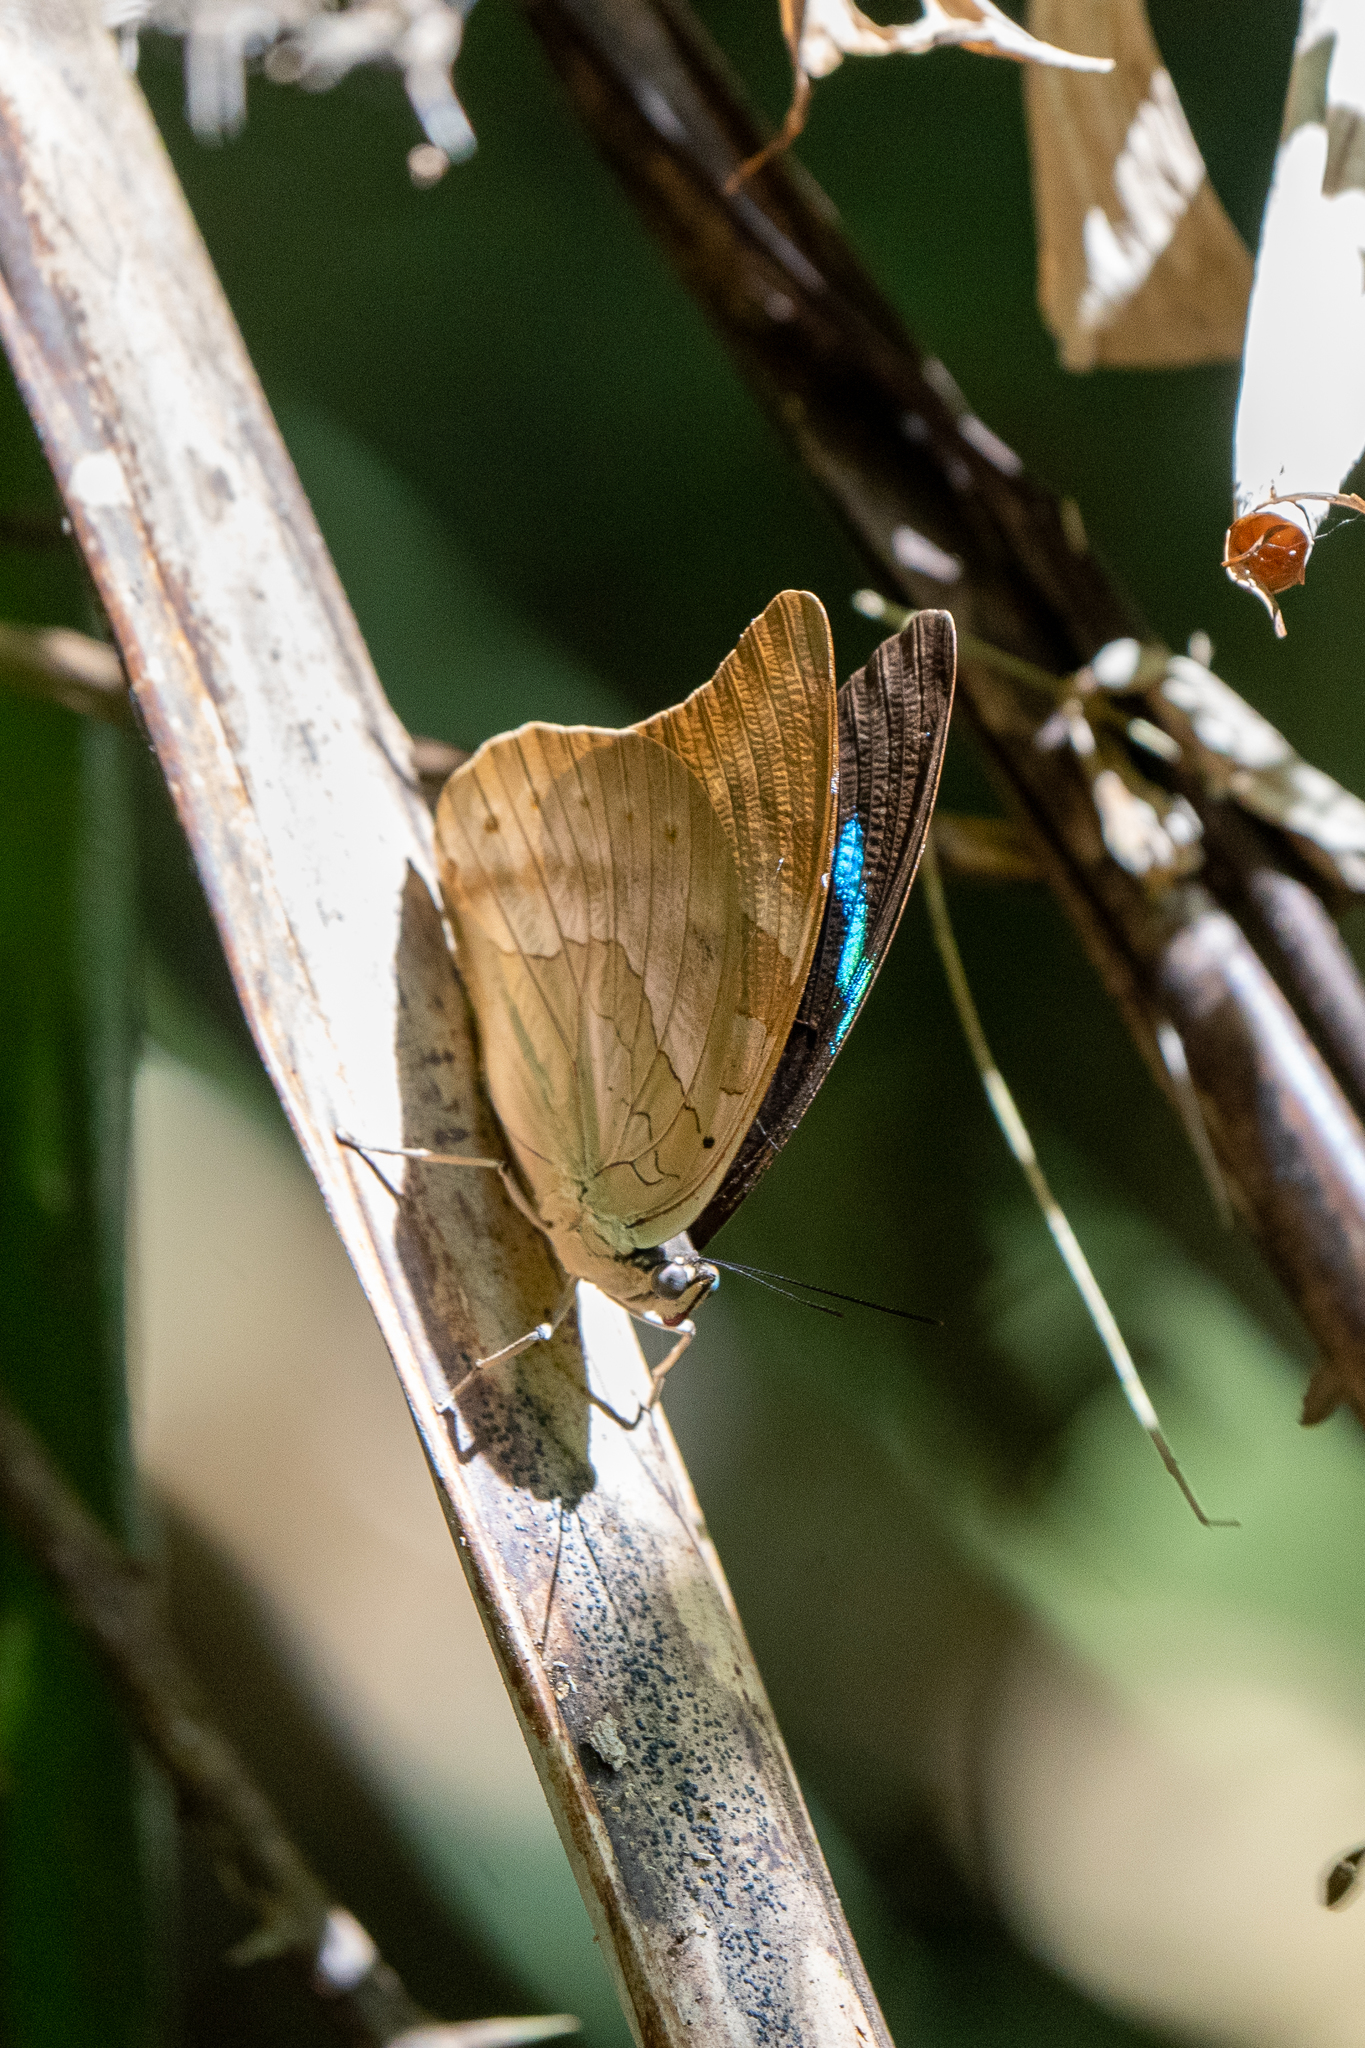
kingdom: Animalia
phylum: Arthropoda
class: Insecta
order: Lepidoptera
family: Nymphalidae
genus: Prepona
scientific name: Prepona Archaeoprepona demophon
